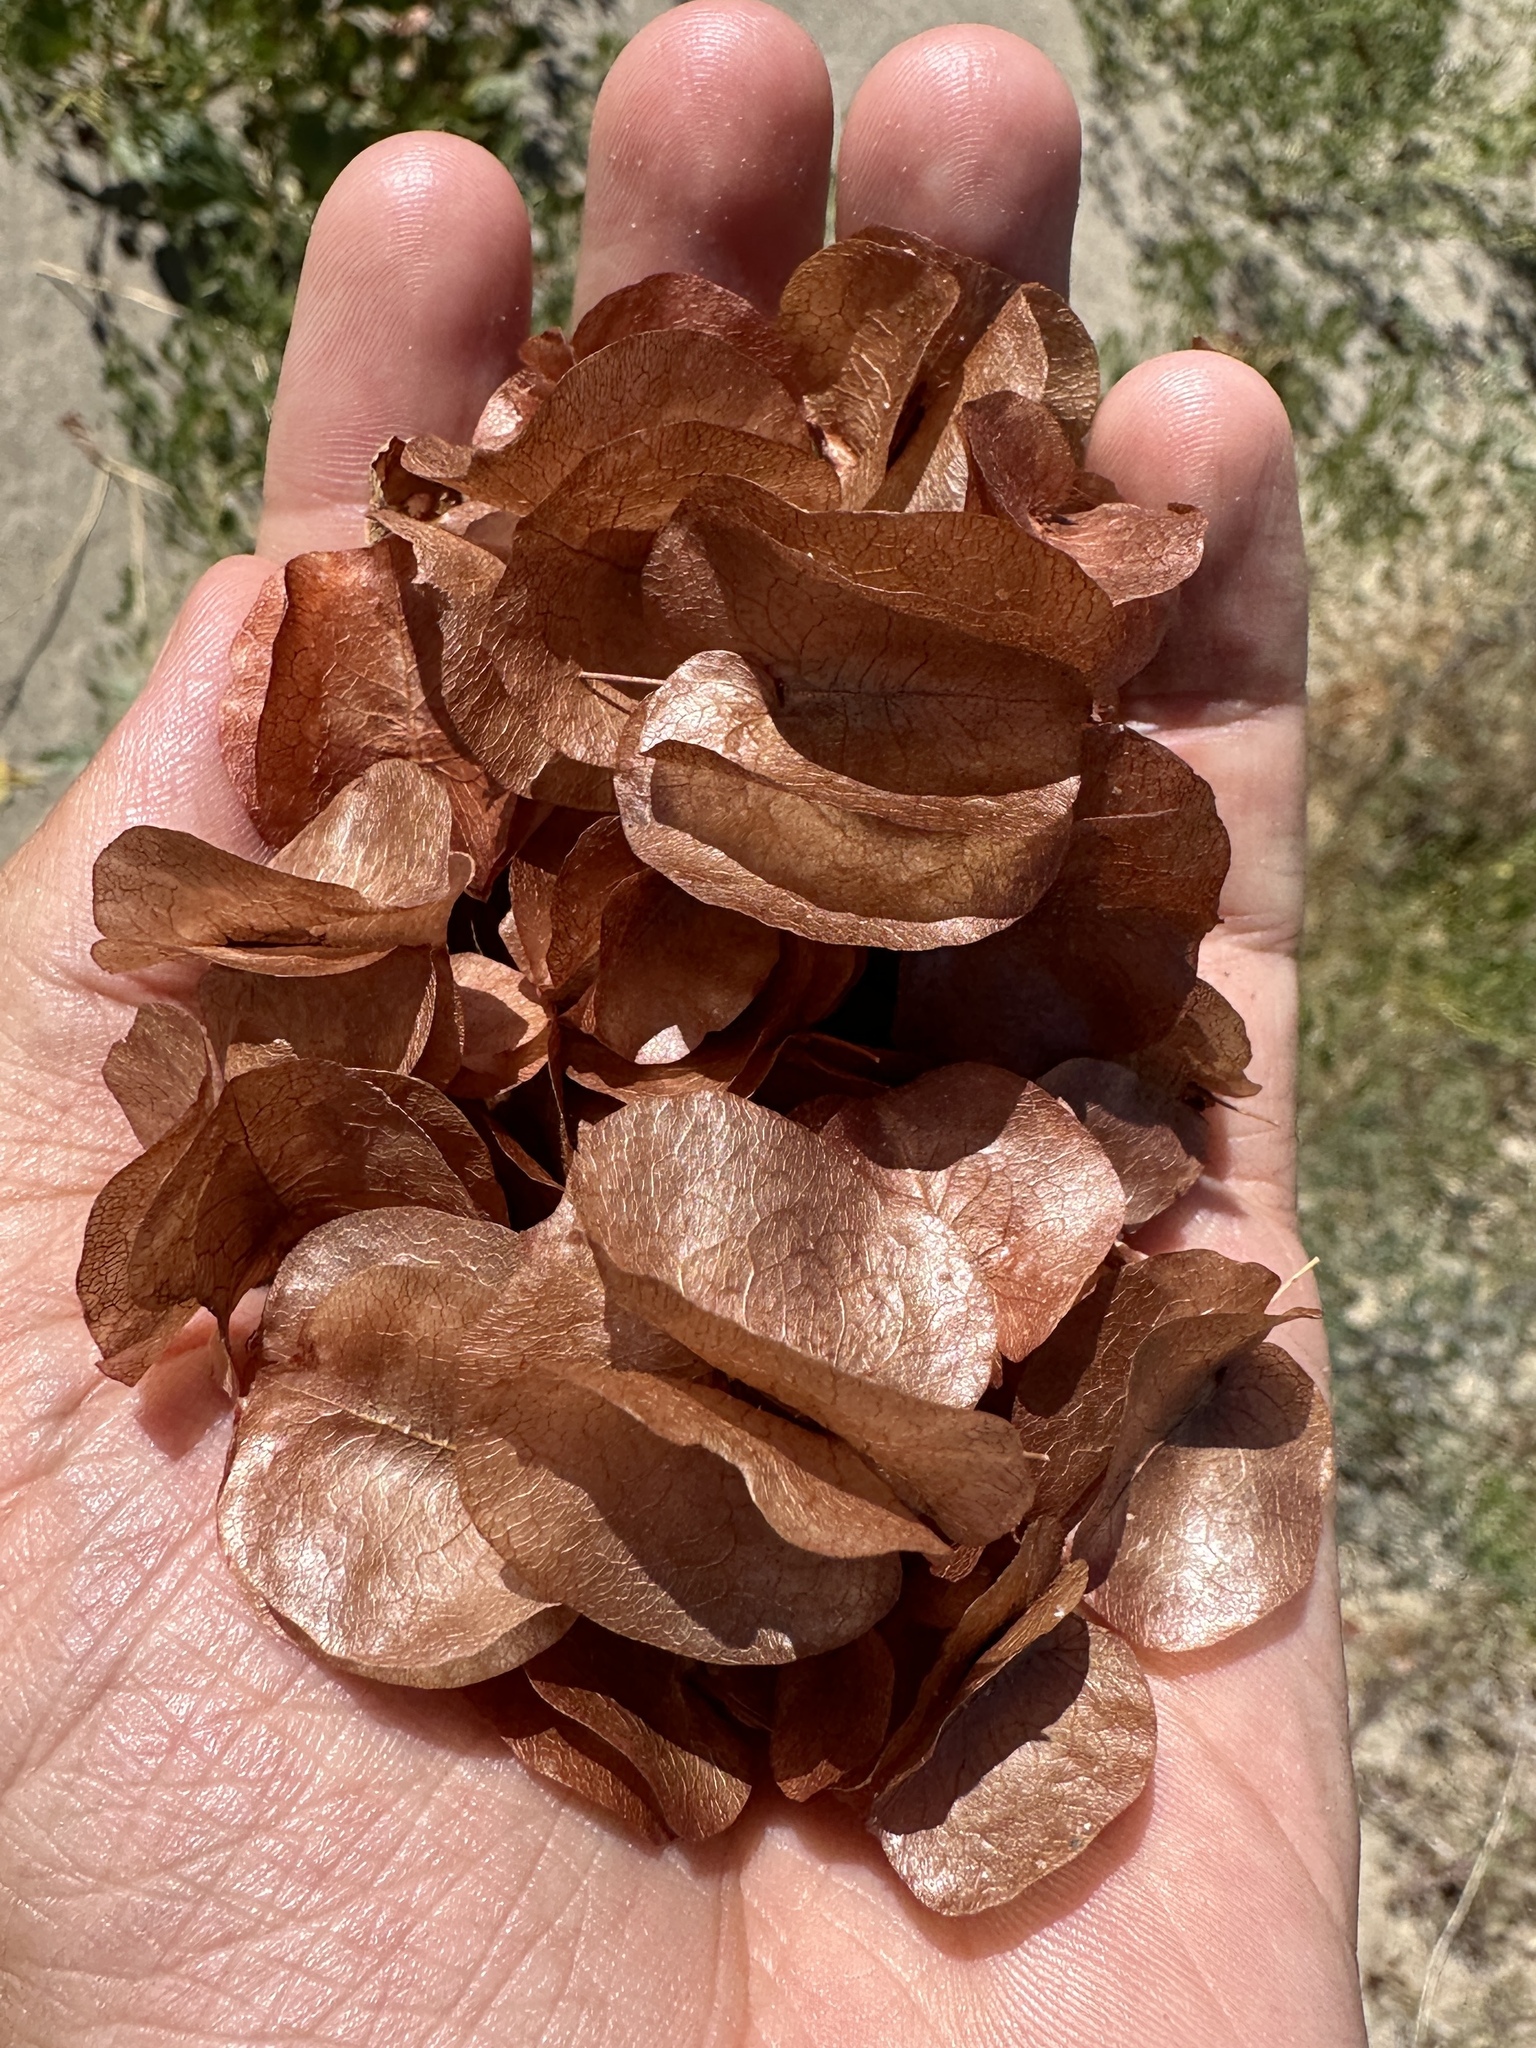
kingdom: Plantae
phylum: Tracheophyta
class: Magnoliopsida
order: Caryophyllales
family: Polygonaceae
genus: Rumex
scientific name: Rumex venosus
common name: Winged dock
